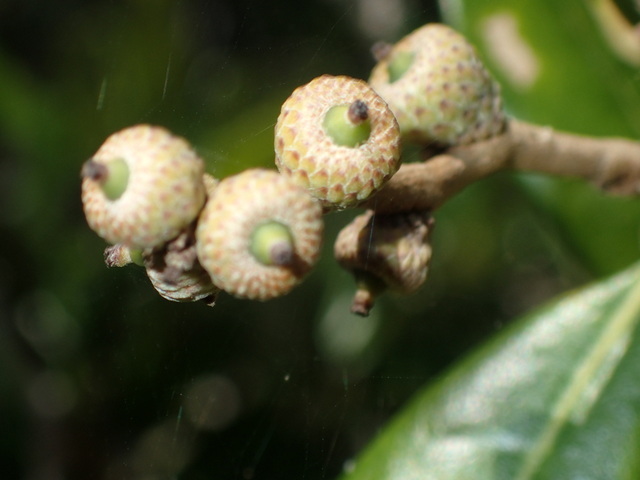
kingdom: Plantae
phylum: Tracheophyta
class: Magnoliopsida
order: Fagales
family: Fagaceae
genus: Quercus
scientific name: Quercus virginiana
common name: Southern live oak
